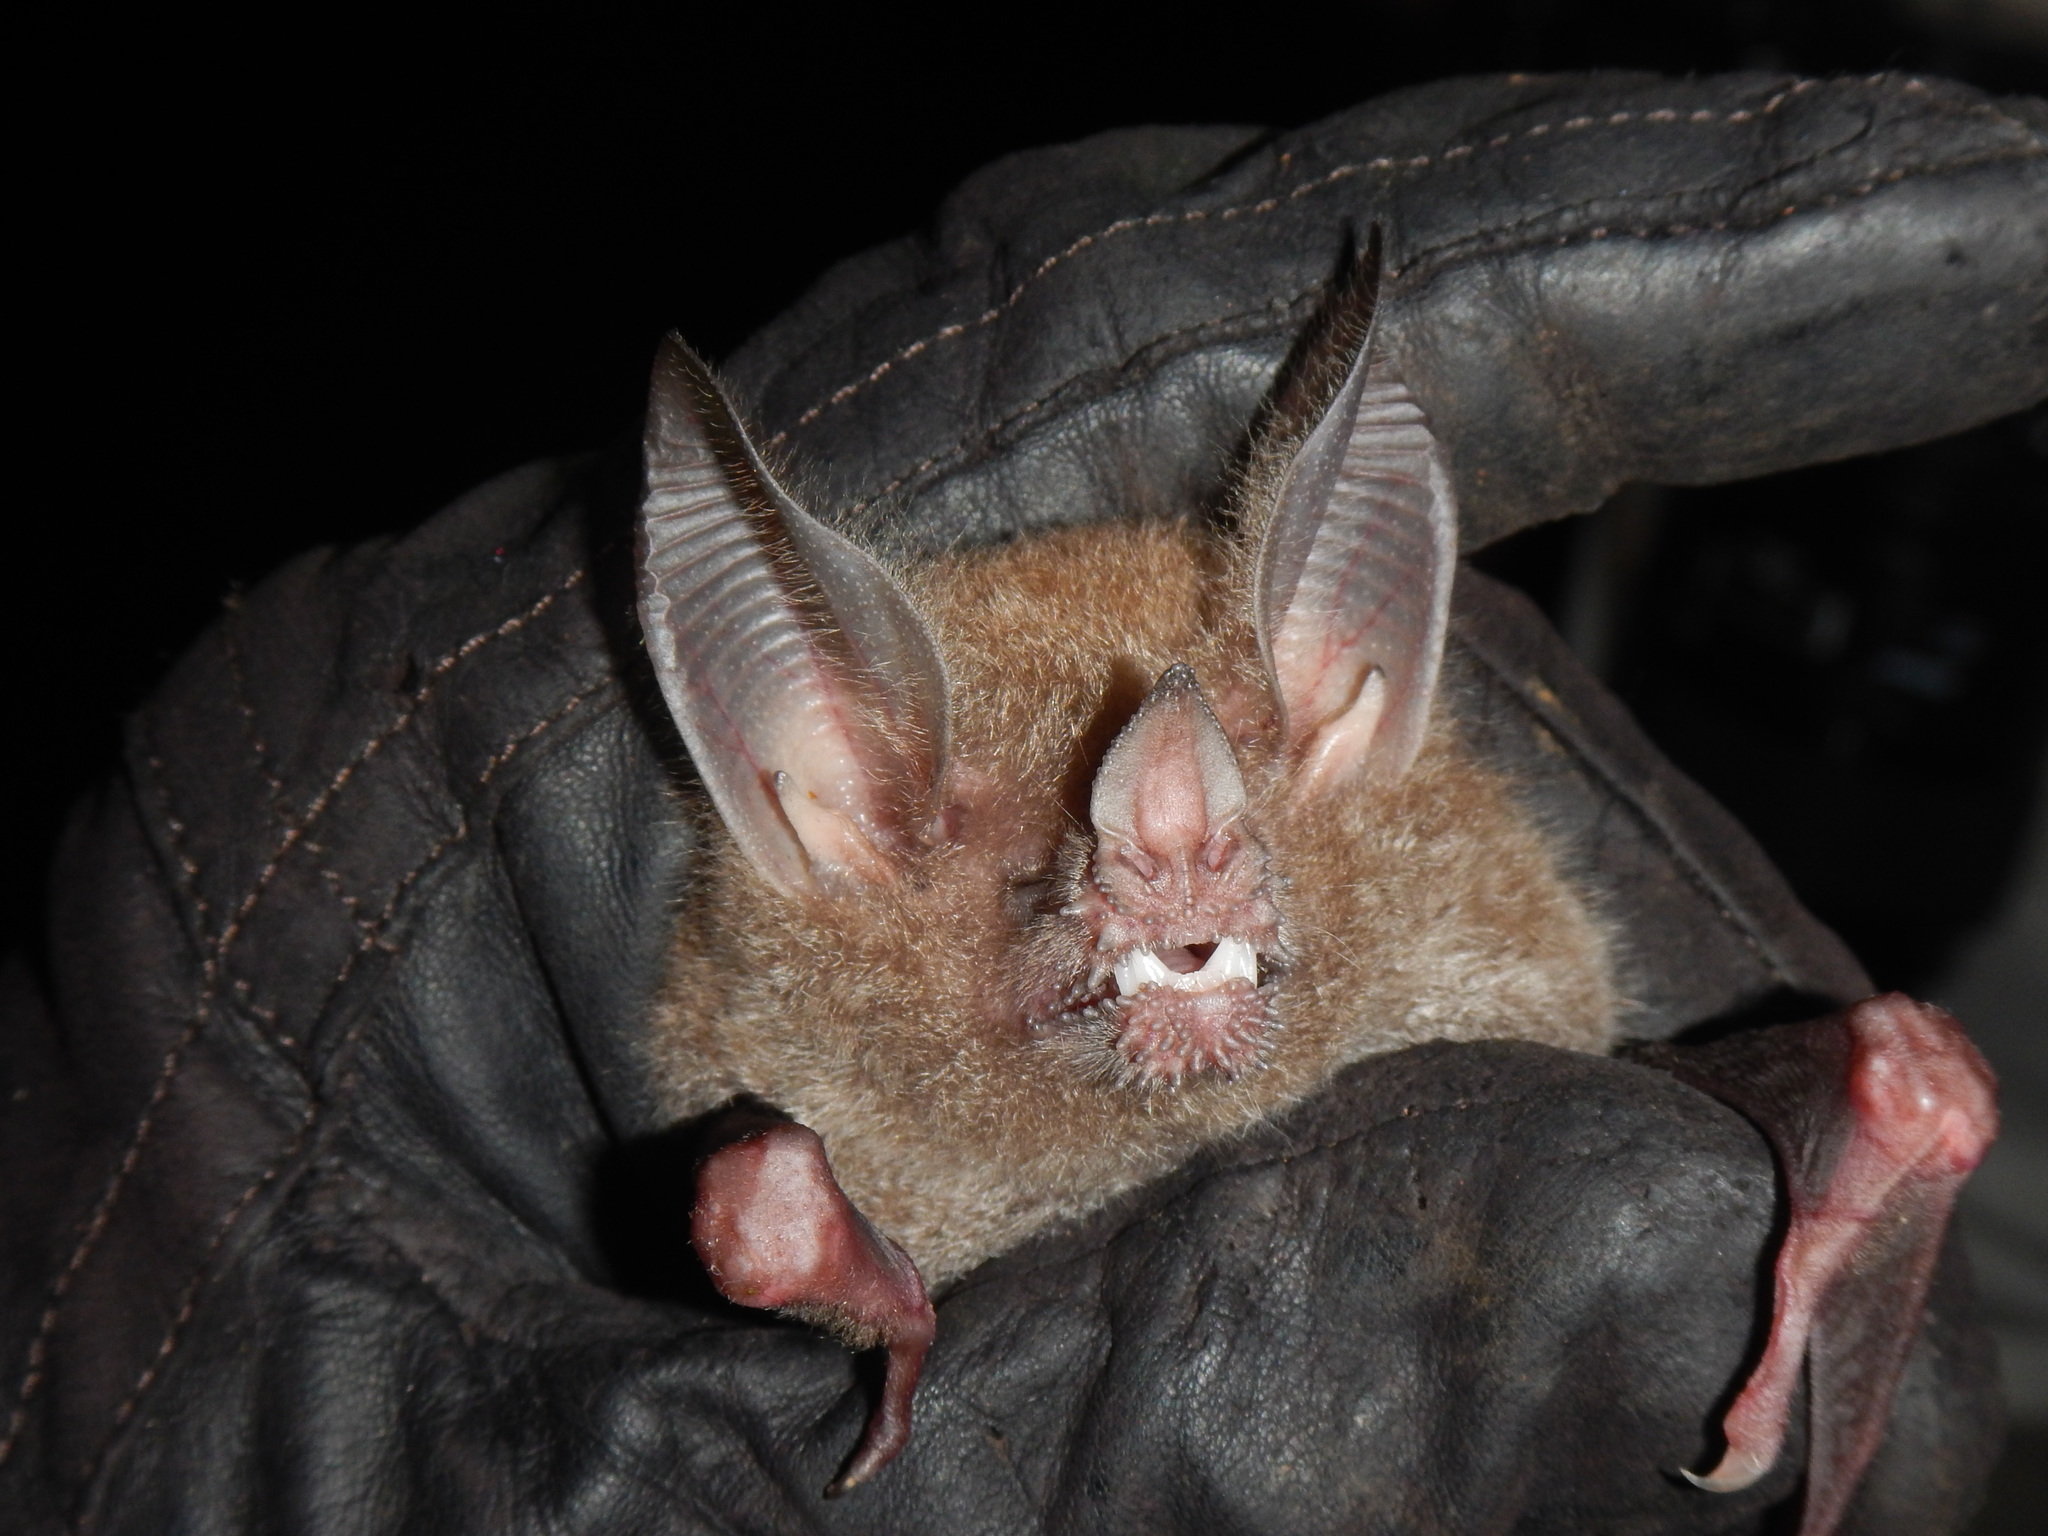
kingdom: Animalia
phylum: Chordata
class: Mammalia
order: Chiroptera
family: Phyllostomidae
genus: Trachops
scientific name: Trachops cirrhosus
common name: Fringe-lipped bat
